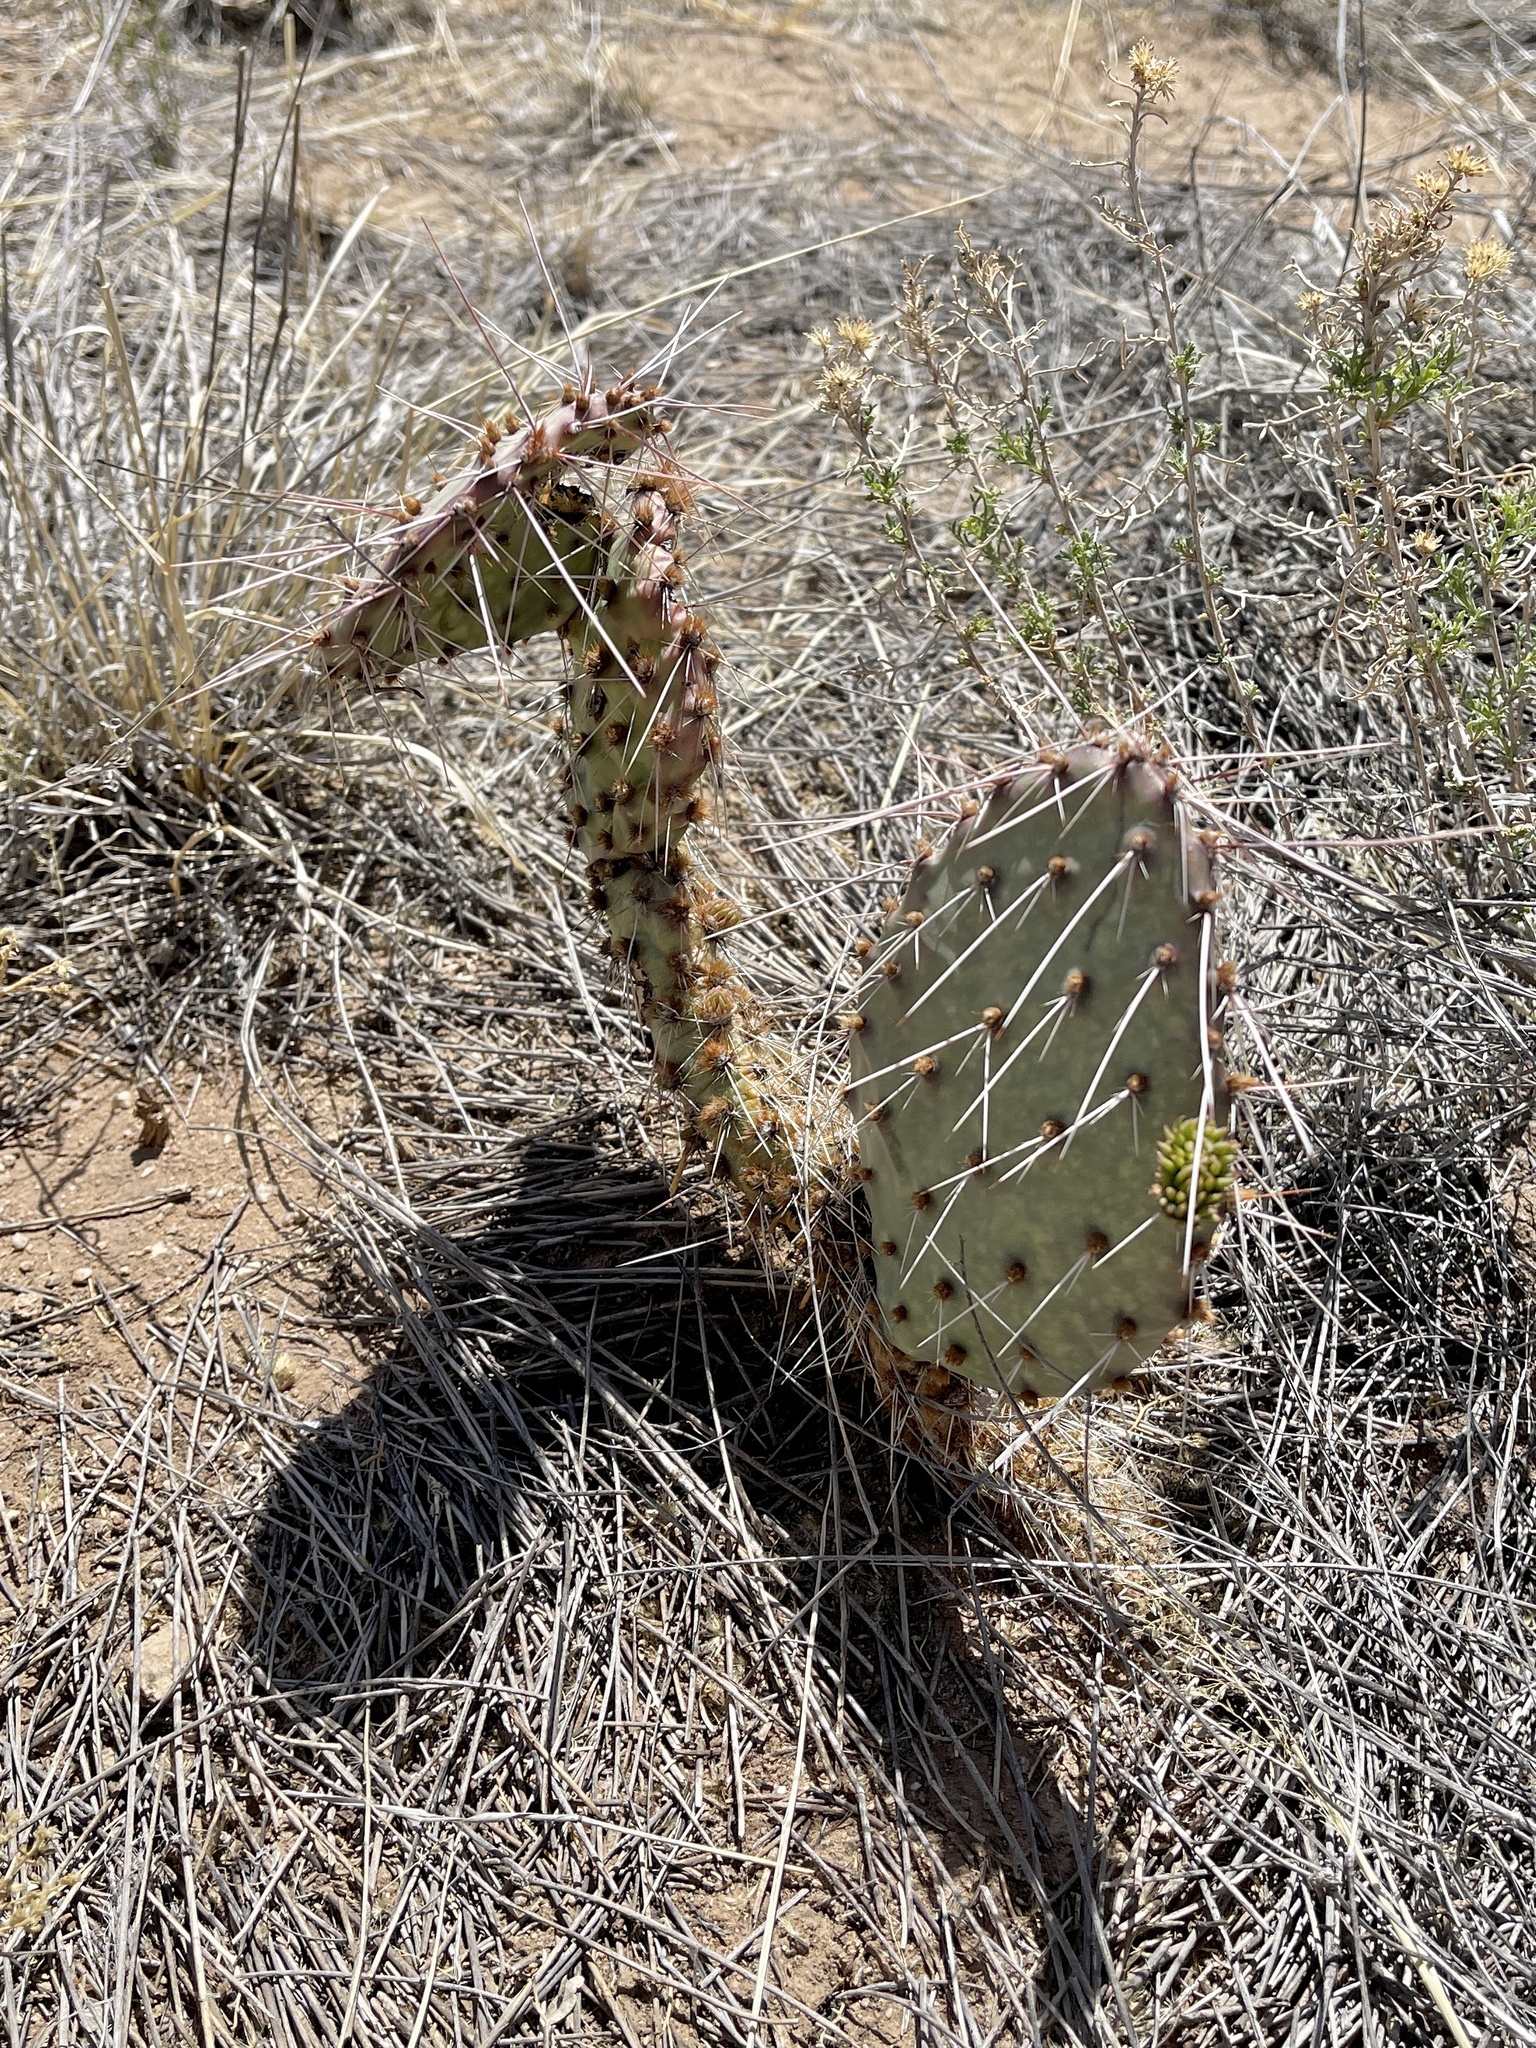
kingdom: Plantae
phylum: Tracheophyta
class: Magnoliopsida
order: Caryophyllales
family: Cactaceae
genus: Opuntia
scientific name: Opuntia phaeacantha
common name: New mexico prickly-pear
